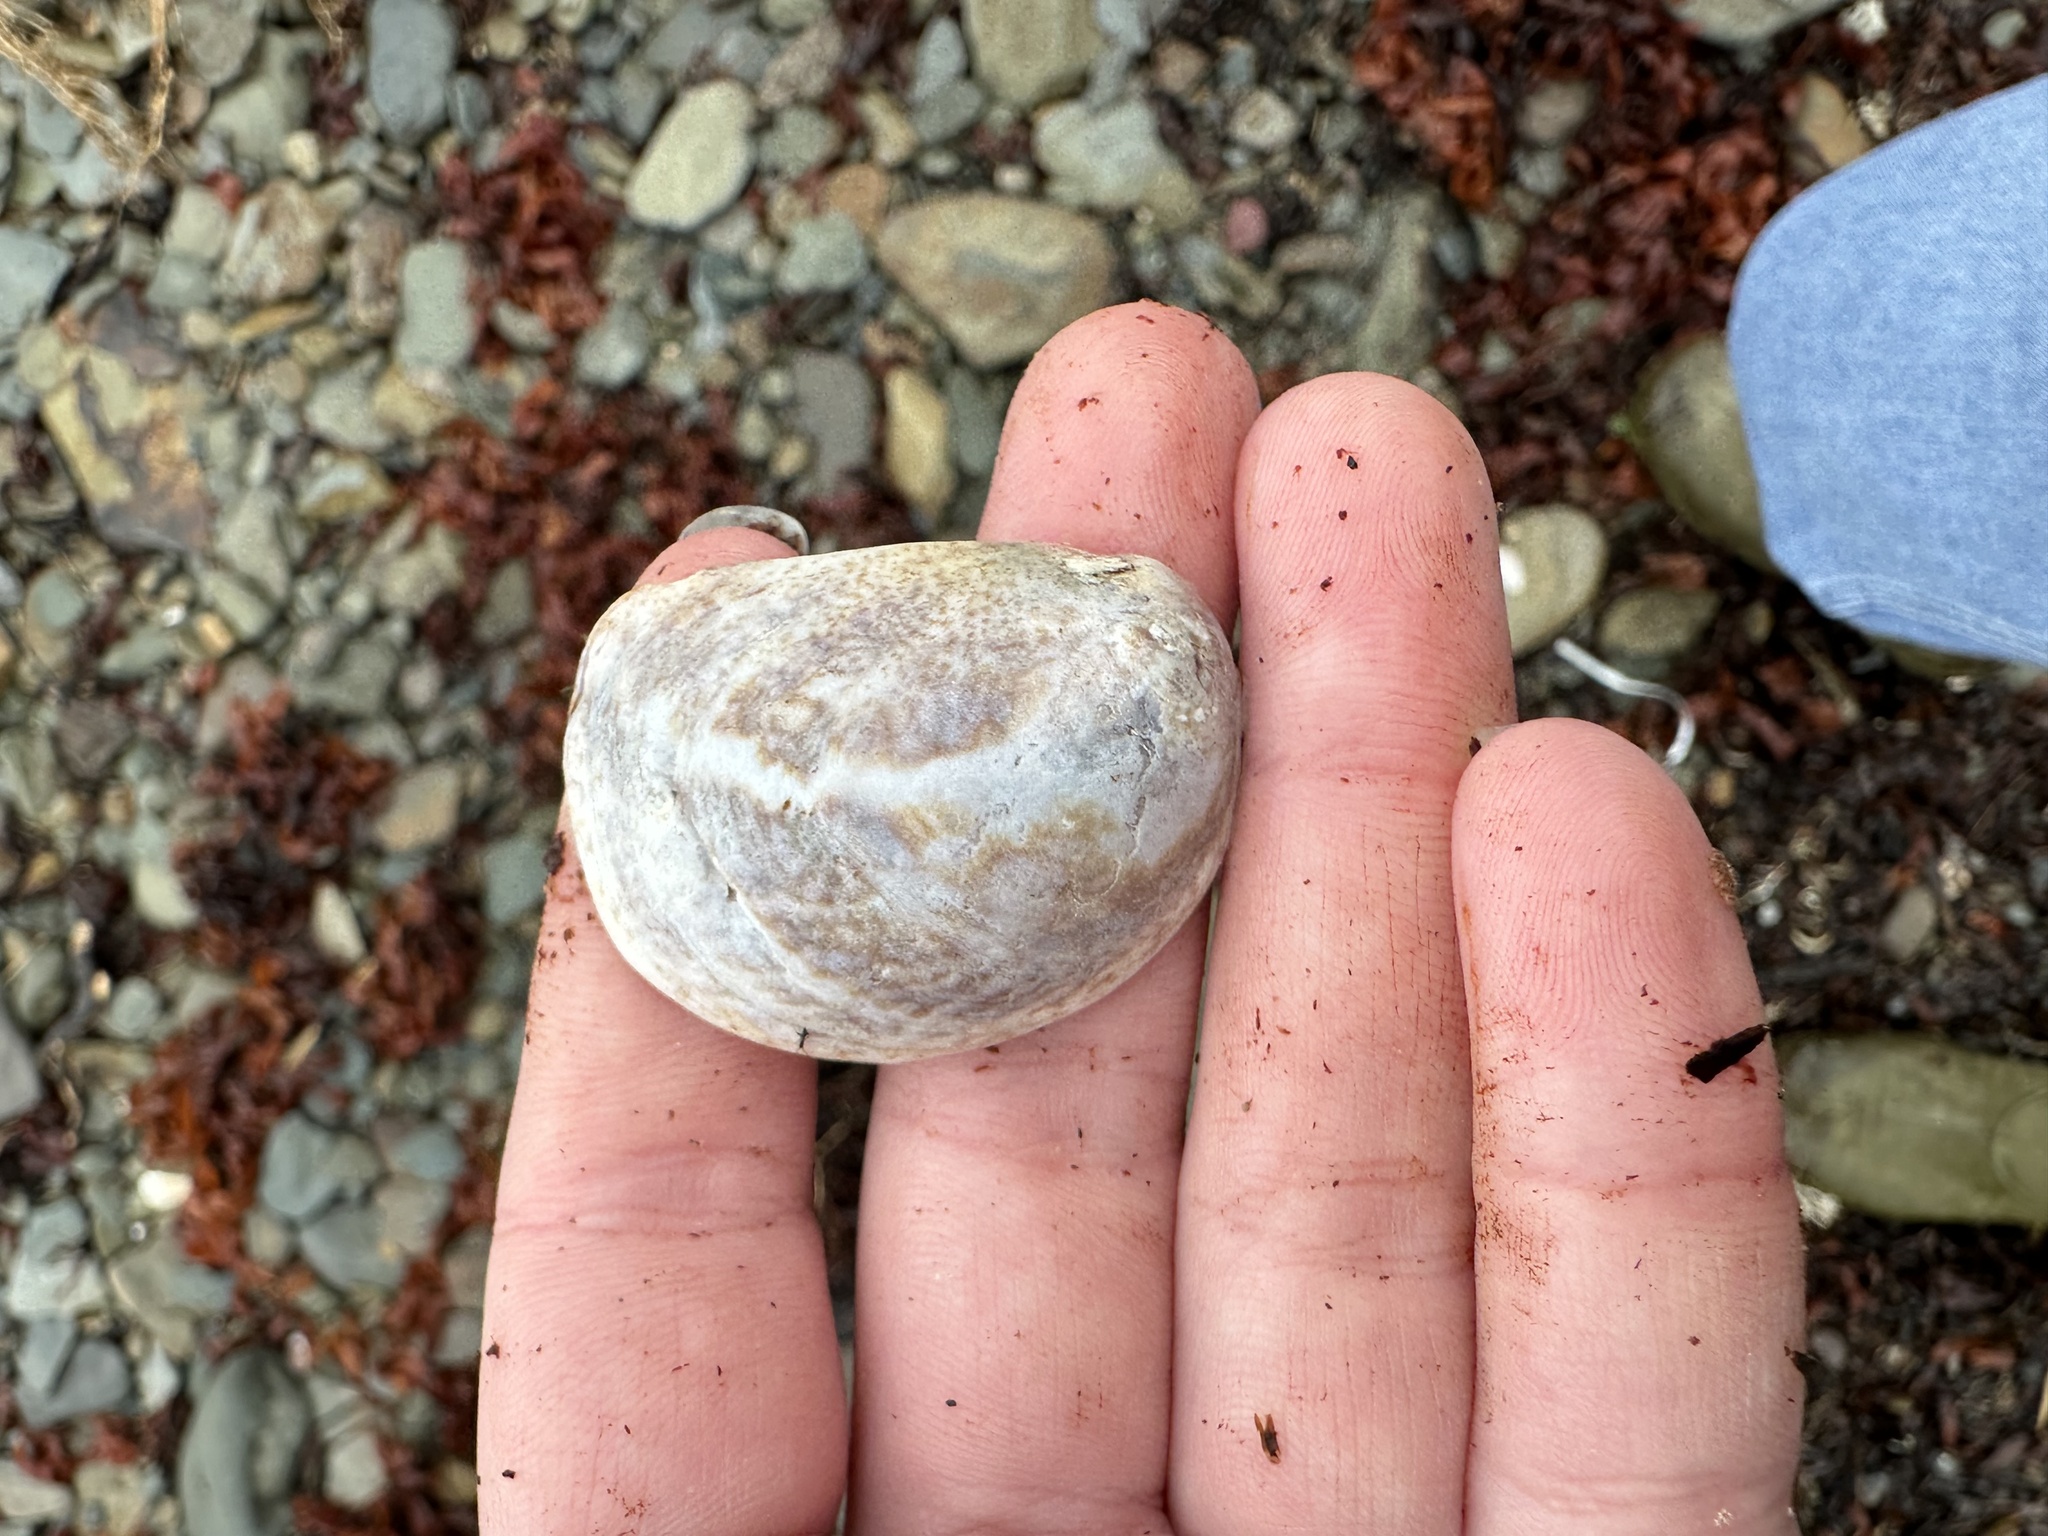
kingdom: Animalia
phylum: Mollusca
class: Gastropoda
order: Littorinimorpha
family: Calyptraeidae
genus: Crepidula
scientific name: Crepidula fornicata
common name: Slipper limpet
